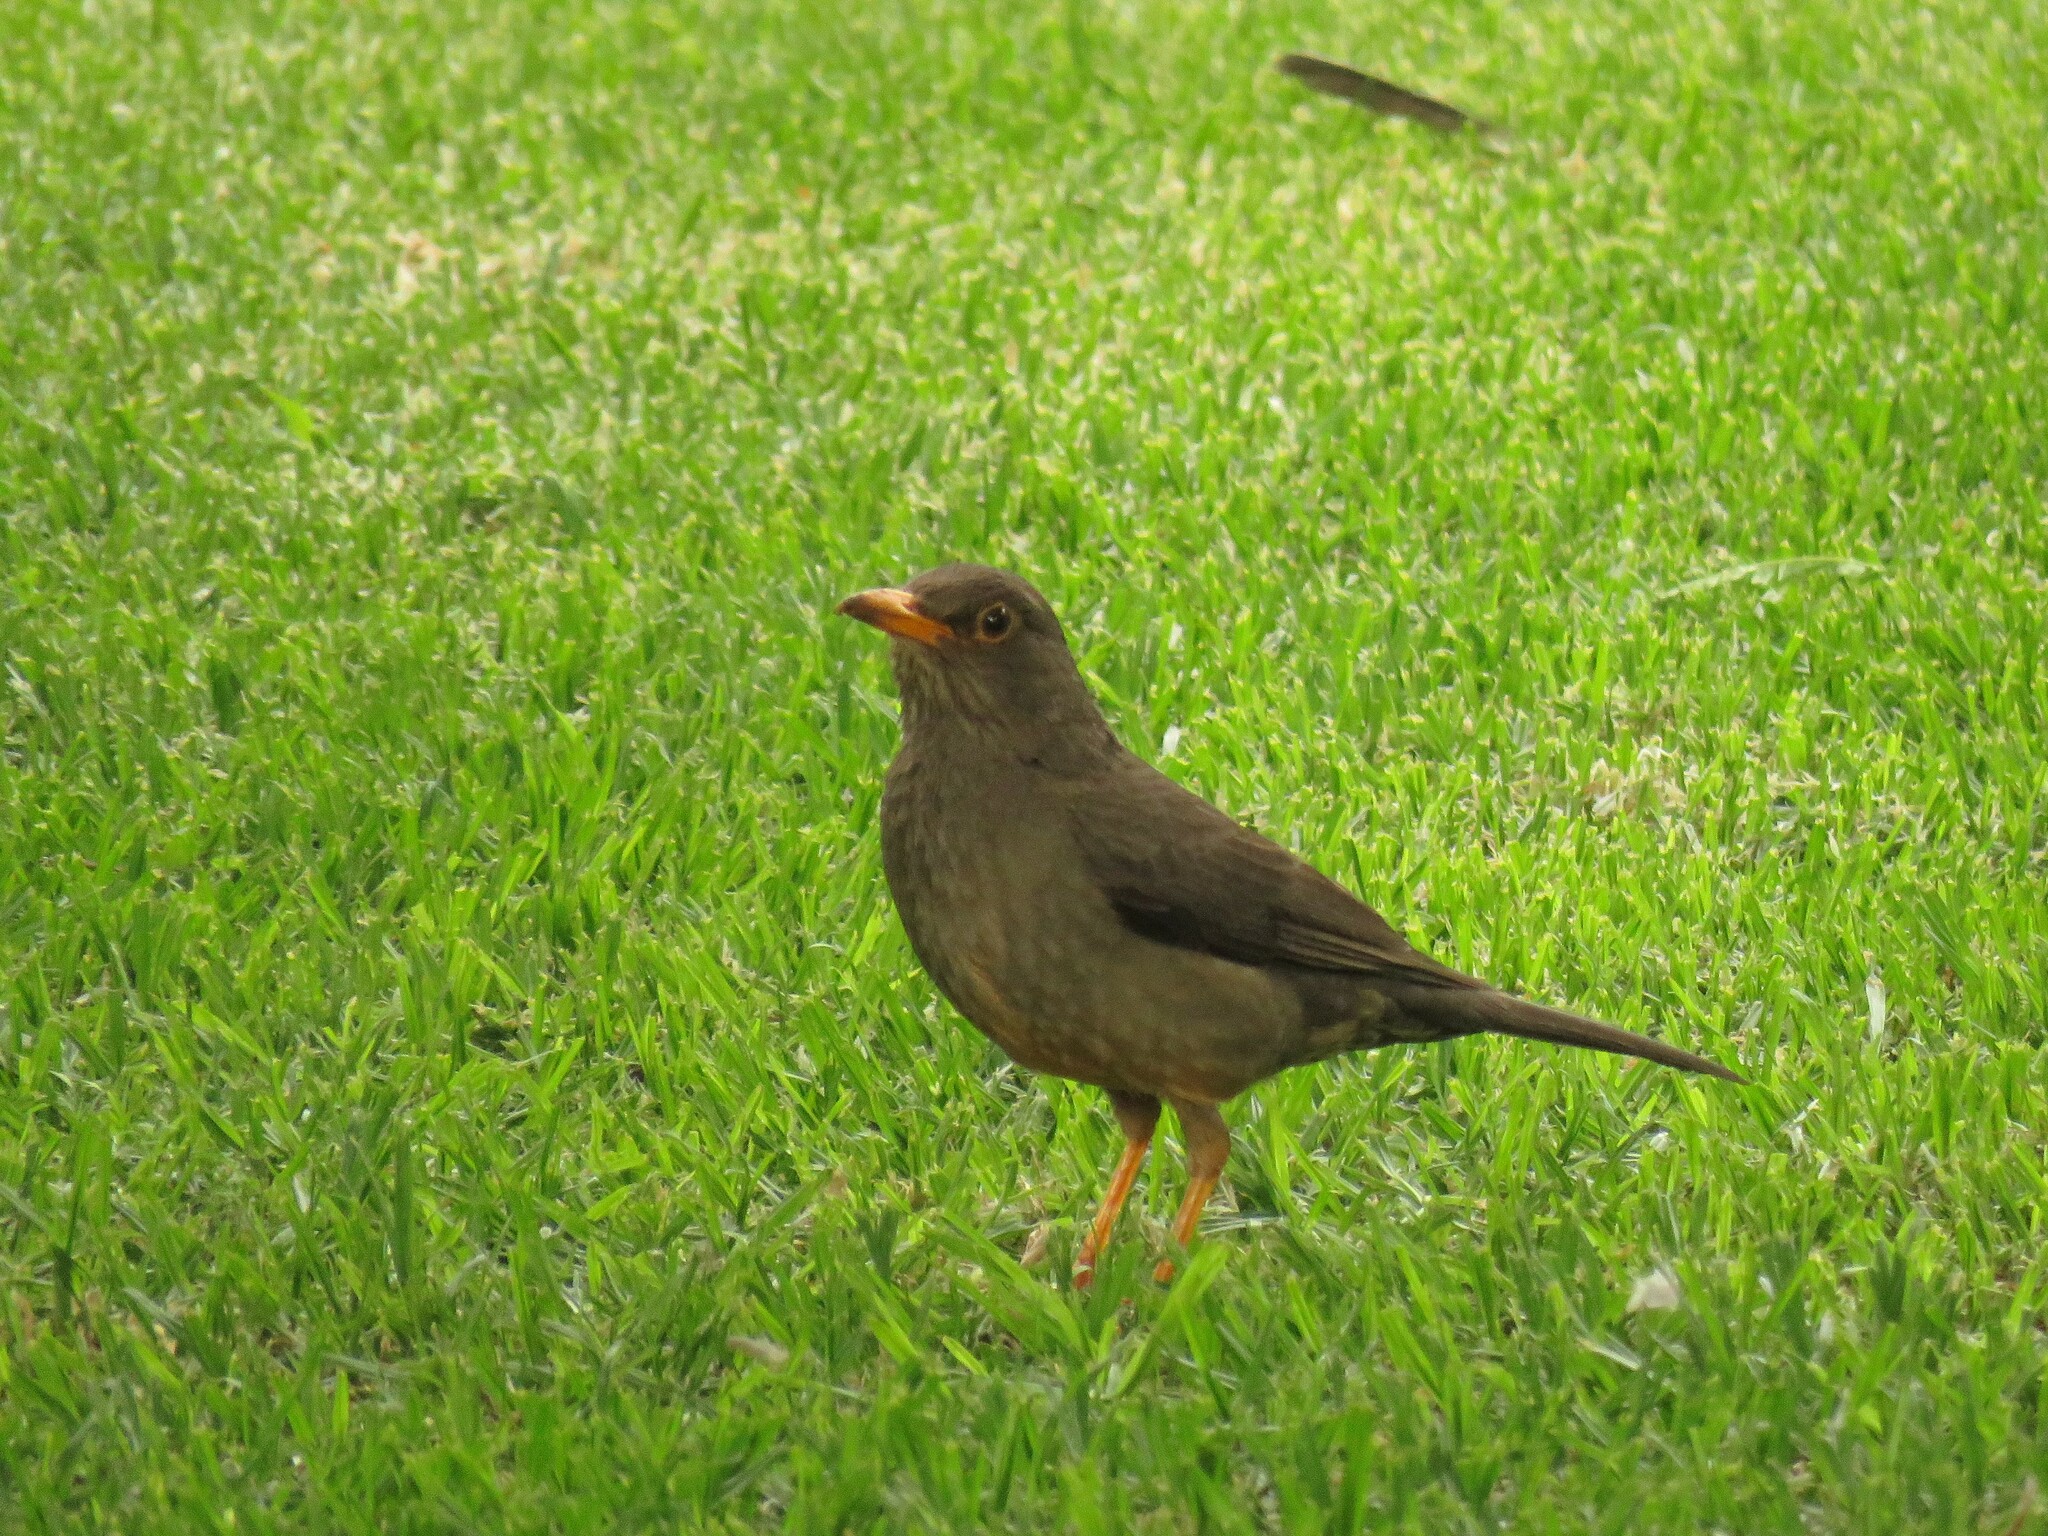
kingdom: Animalia
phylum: Chordata
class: Aves
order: Passeriformes
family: Turdidae
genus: Turdus
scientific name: Turdus smithi
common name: Karoo thrush
